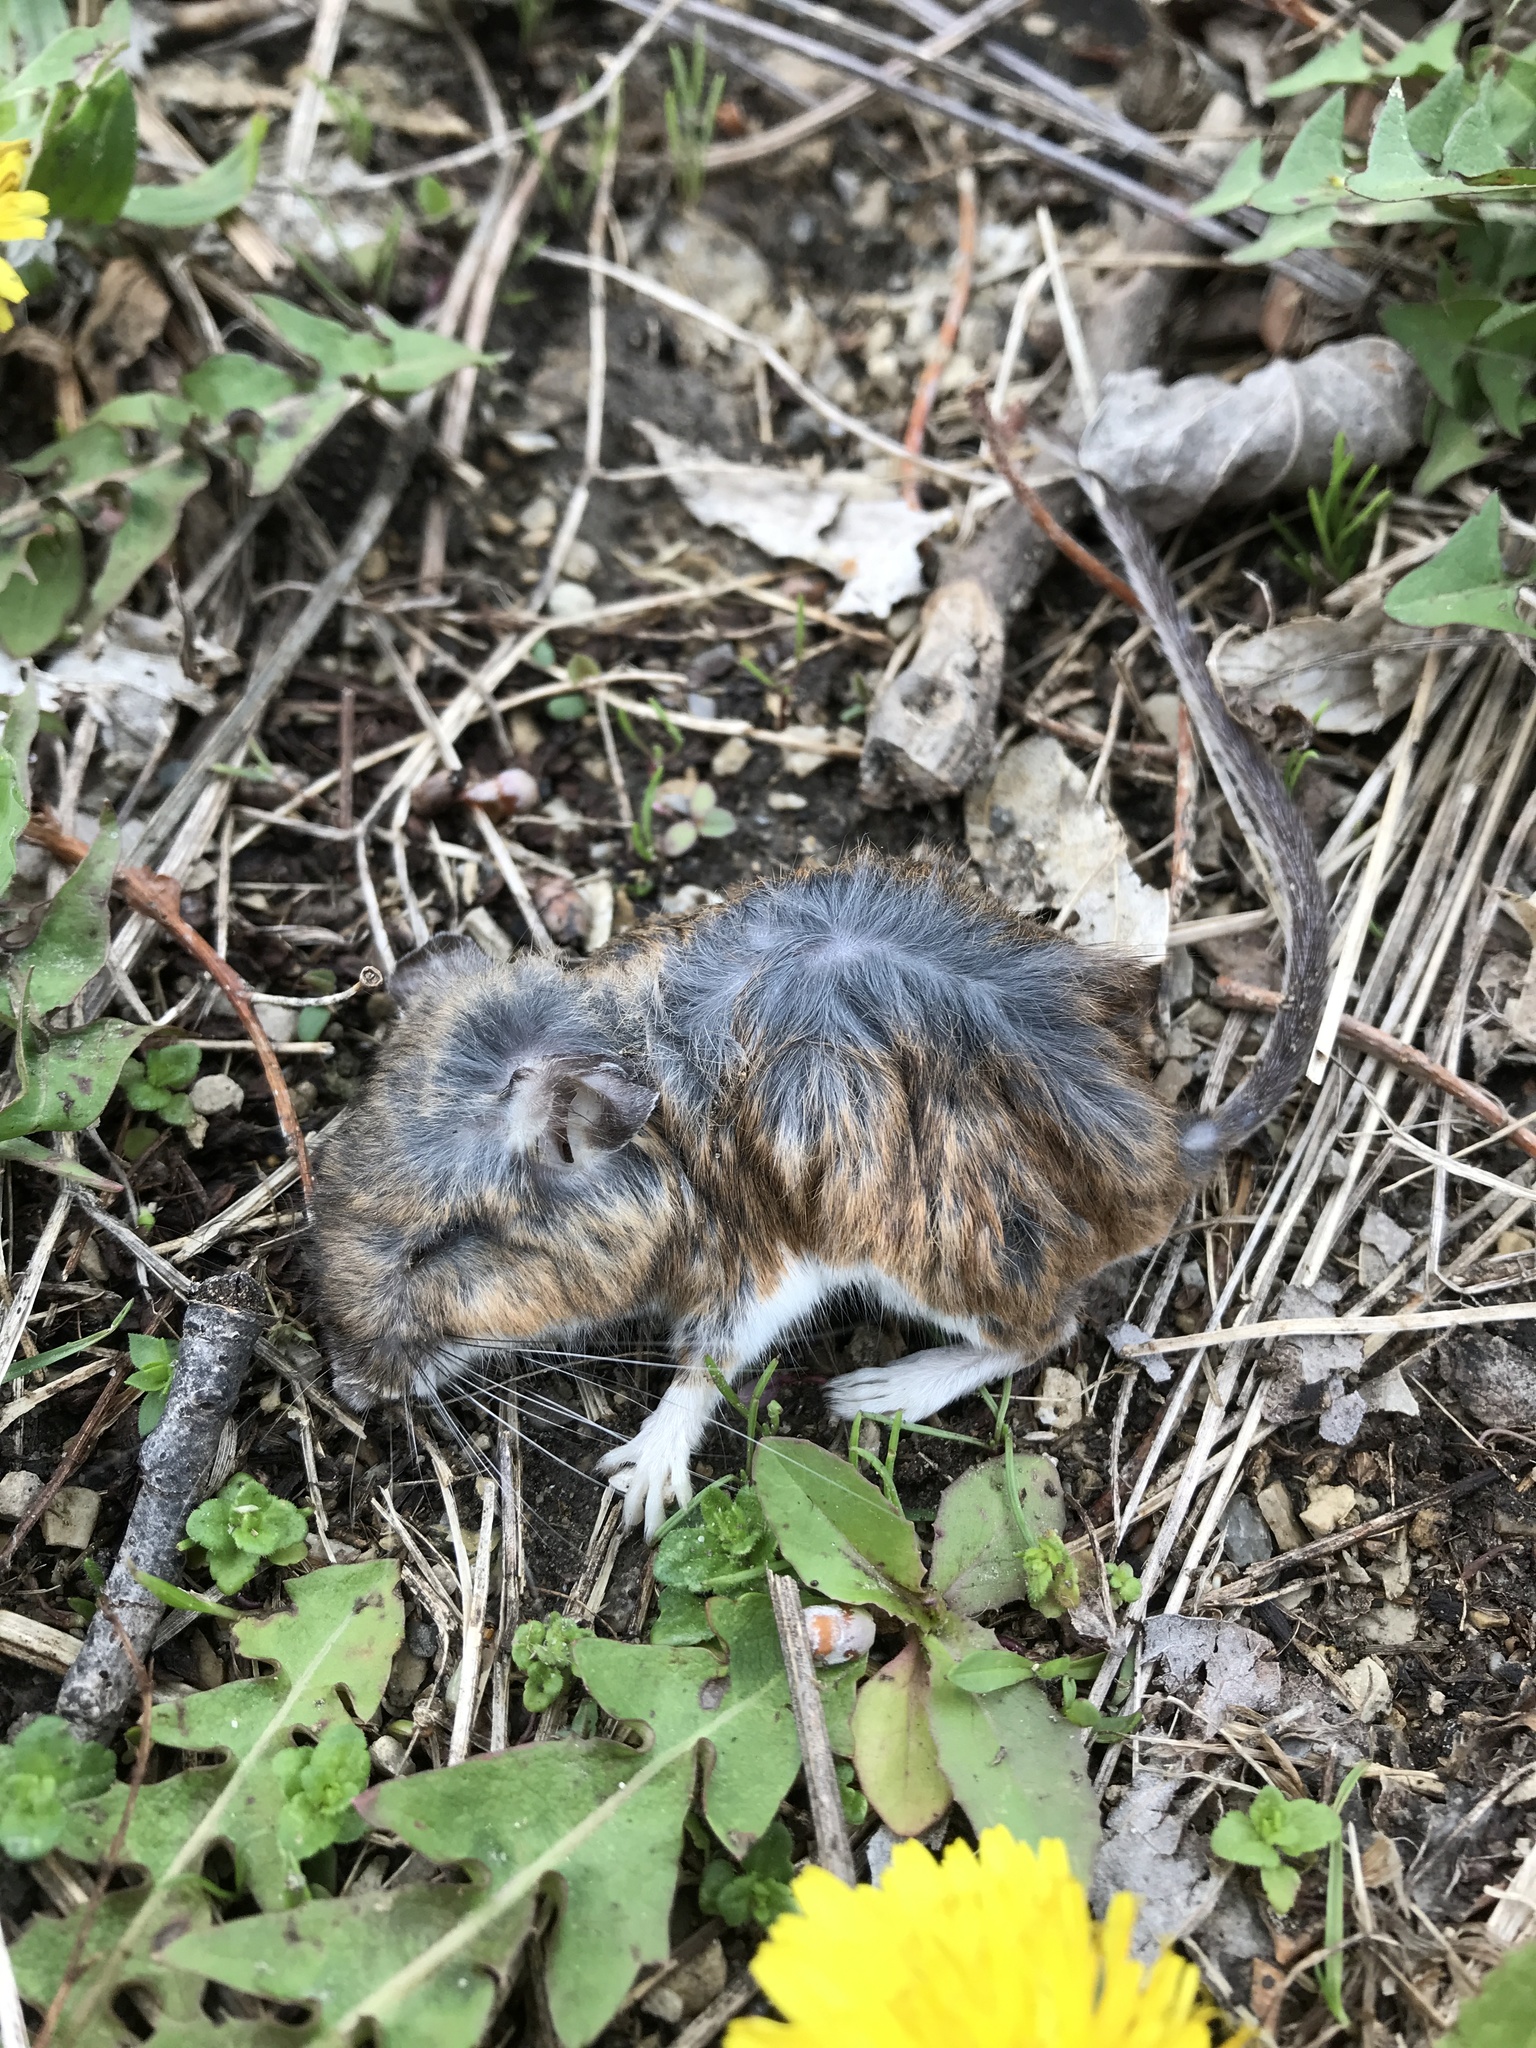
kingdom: Animalia
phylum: Chordata
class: Mammalia
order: Rodentia
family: Cricetidae
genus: Peromyscus
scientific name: Peromyscus leucopus
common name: White-footed deermouse
